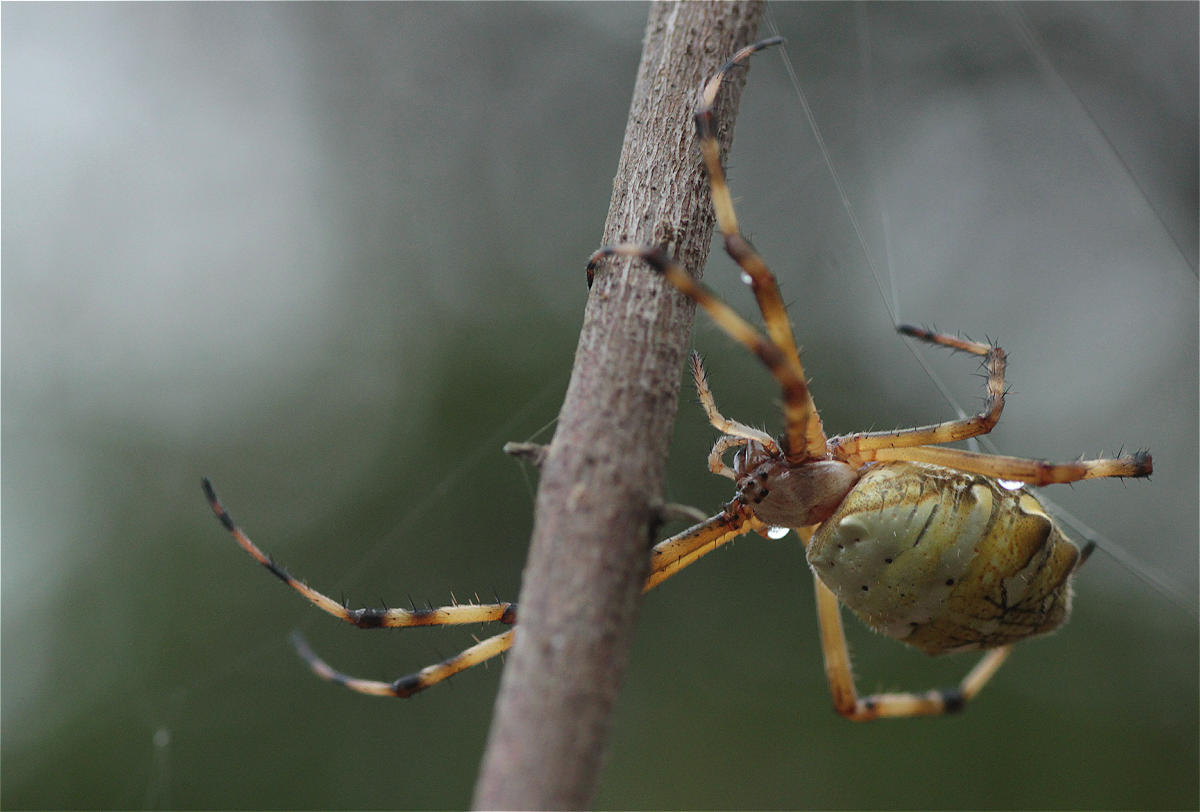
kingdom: Animalia
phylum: Arthropoda
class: Arachnida
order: Araneae
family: Araneidae
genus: Argiope
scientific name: Argiope argentata
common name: Orb weavers
